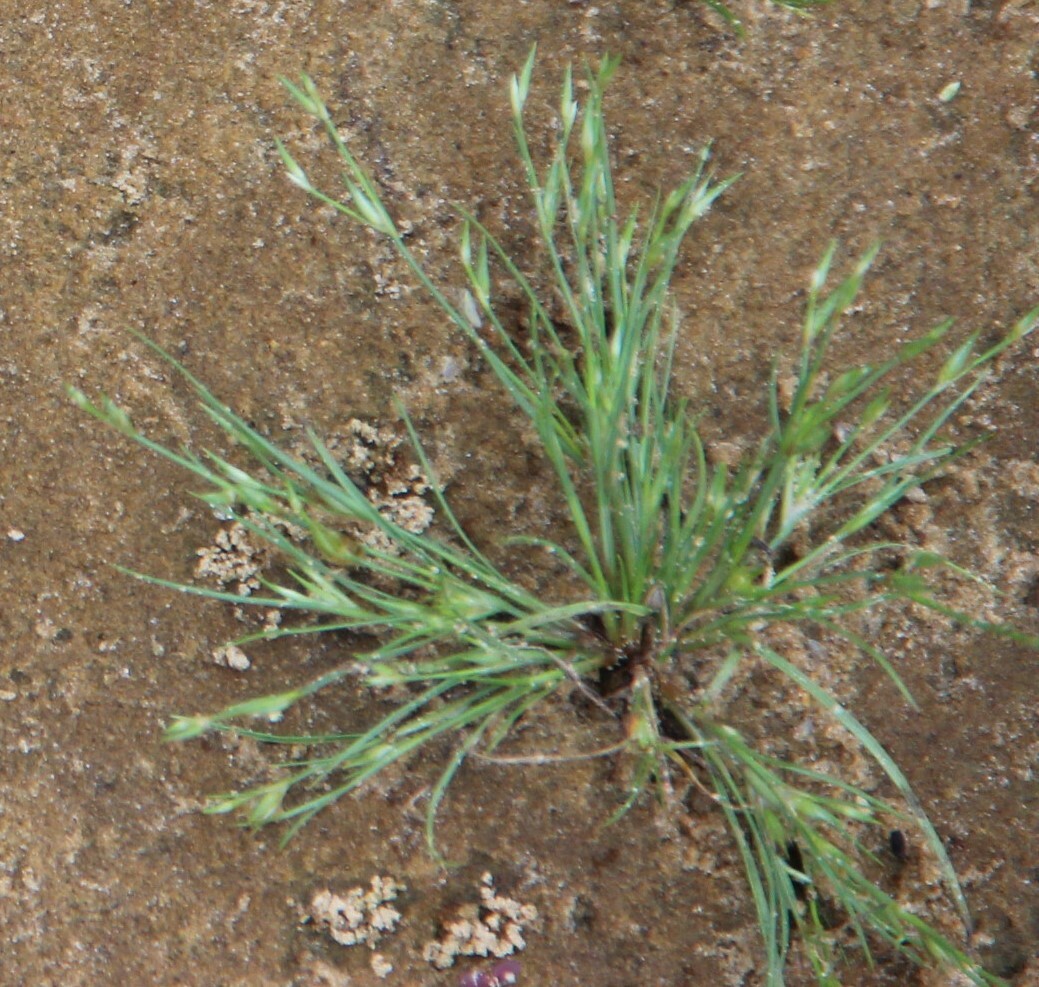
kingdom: Plantae
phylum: Tracheophyta
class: Liliopsida
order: Poales
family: Juncaceae
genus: Juncus
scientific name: Juncus bufonius
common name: Toad rush
